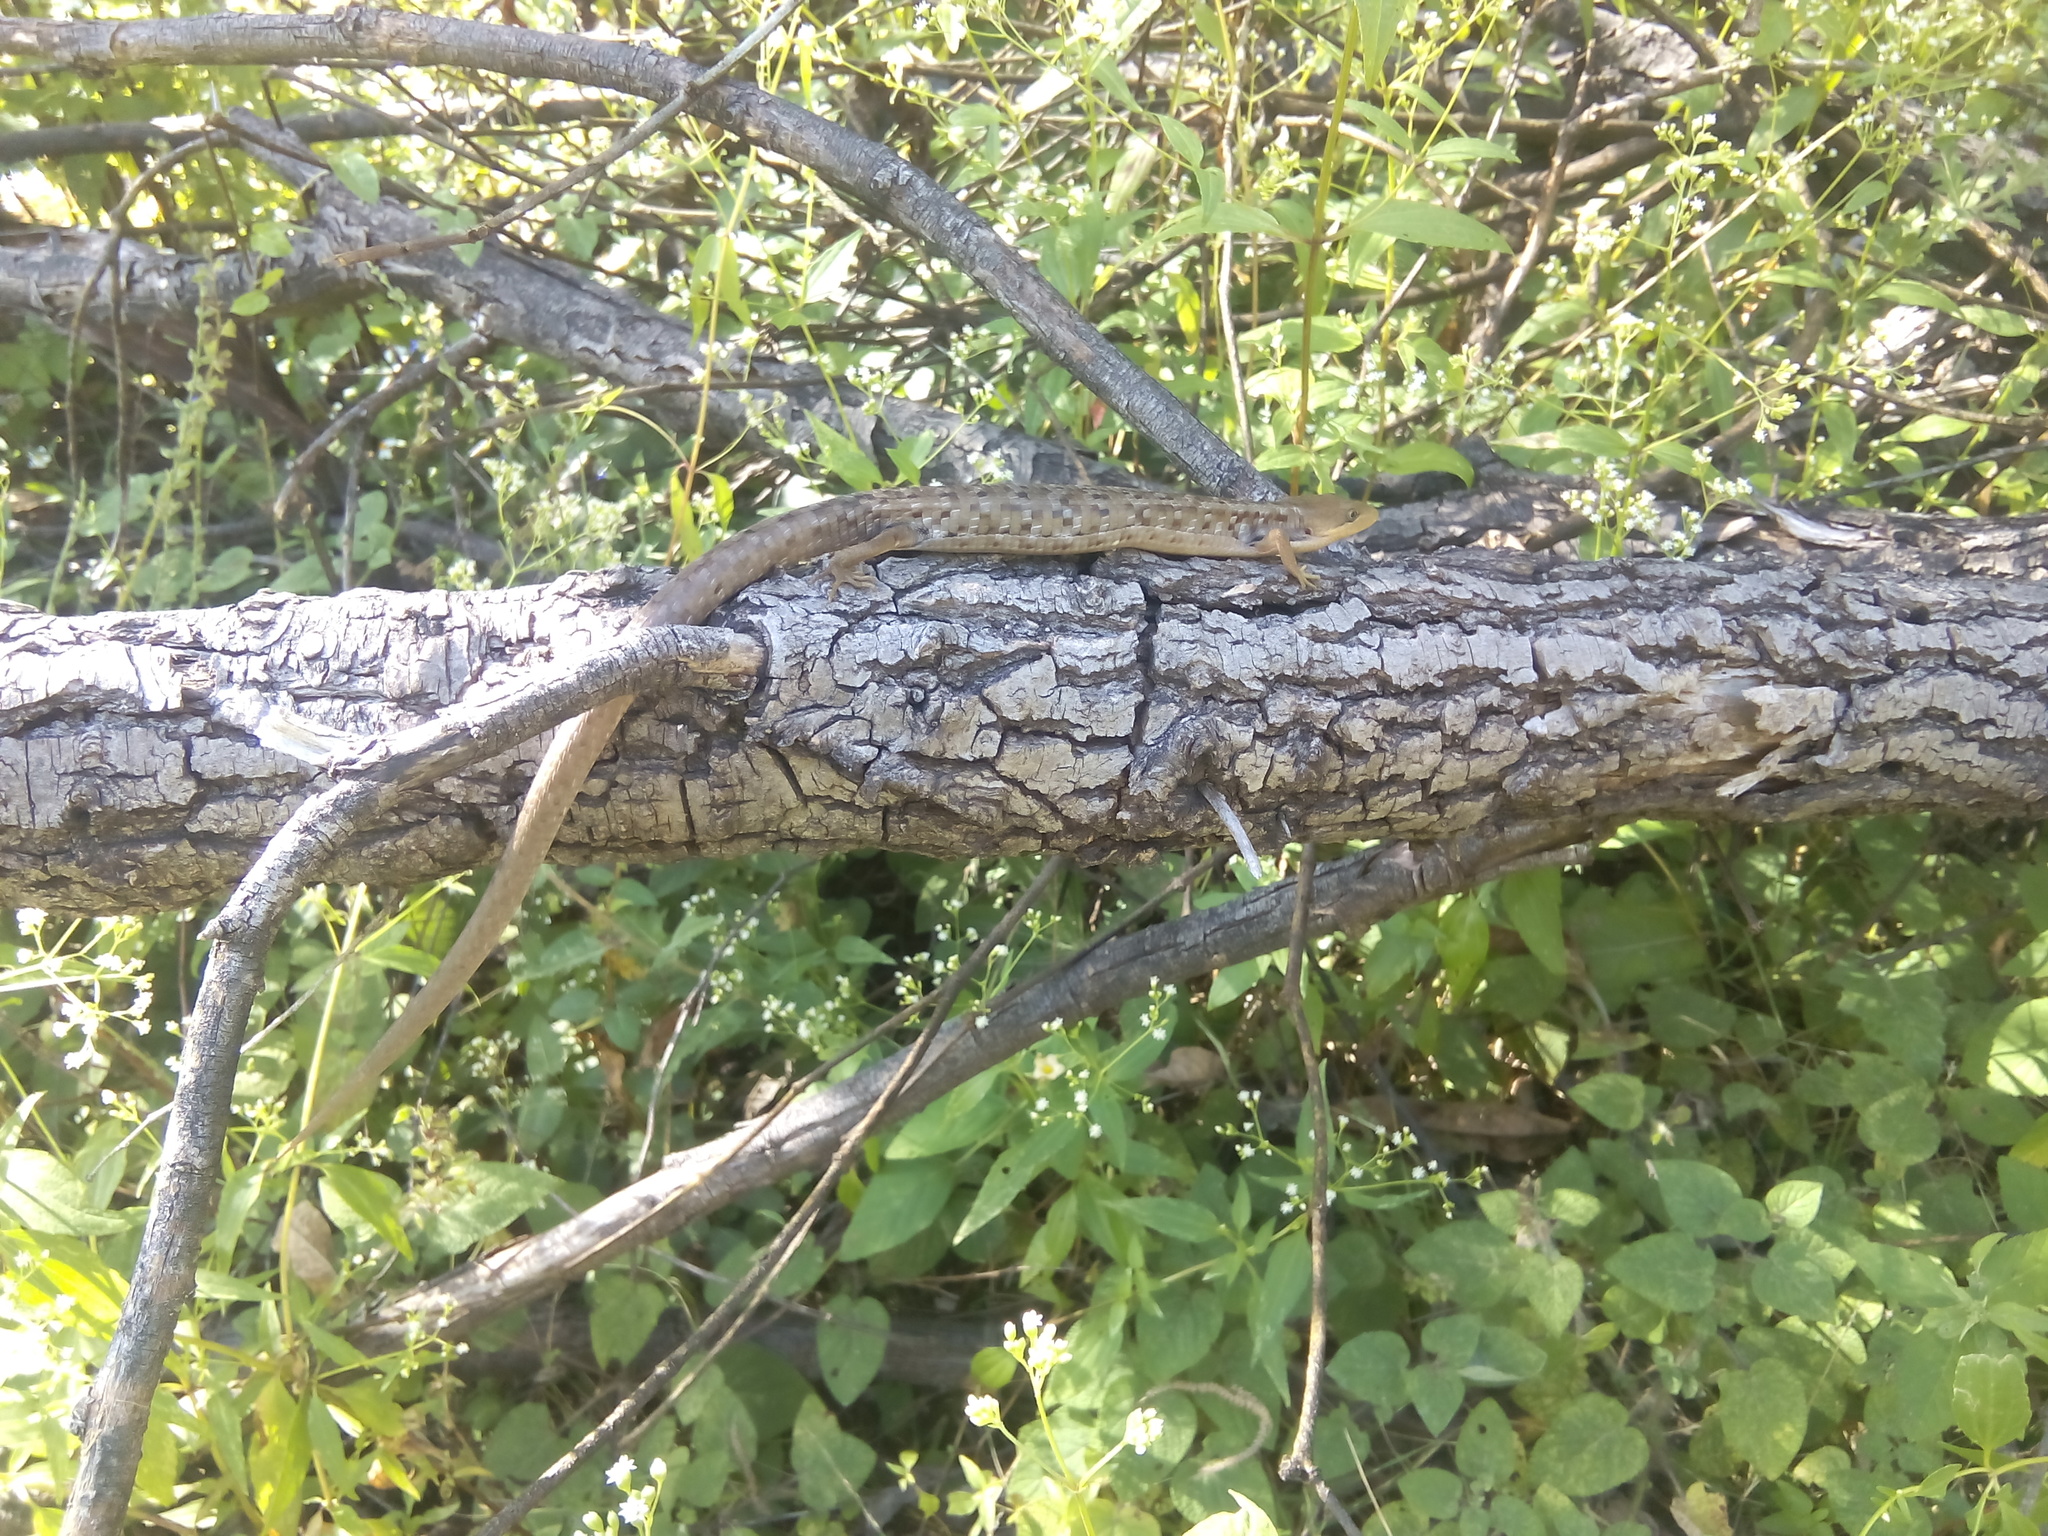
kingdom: Animalia
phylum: Chordata
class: Squamata
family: Anguidae
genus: Gerrhonotus
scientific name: Gerrhonotus liocephalus
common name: Texas alligator lizard
